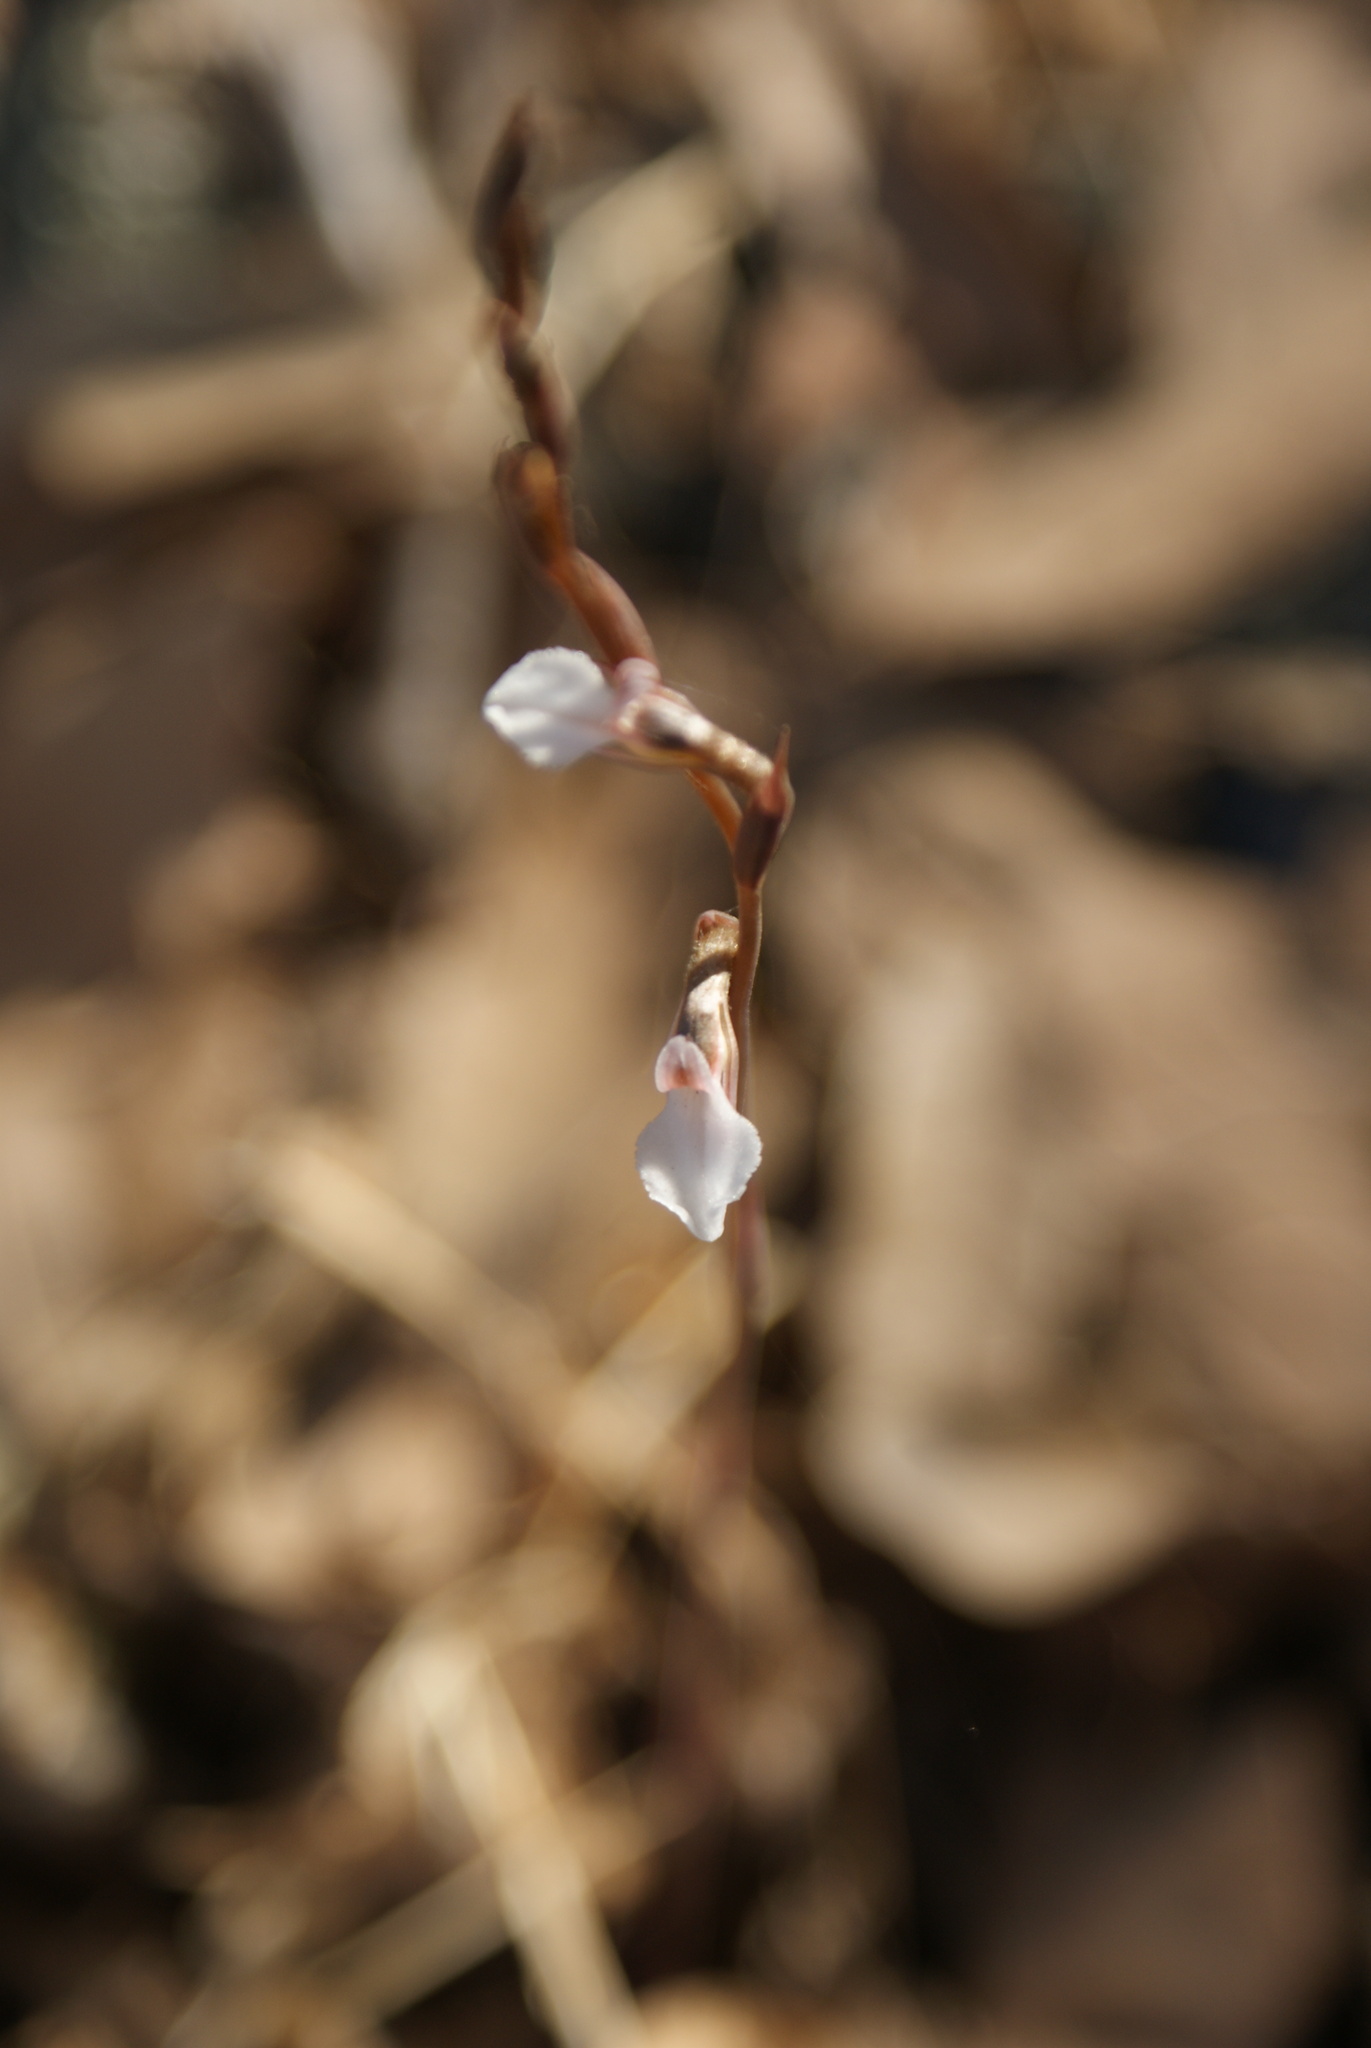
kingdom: Plantae
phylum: Tracheophyta
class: Liliopsida
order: Asparagales
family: Orchidaceae
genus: Greenwoodiella
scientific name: Greenwoodiella micrantha
